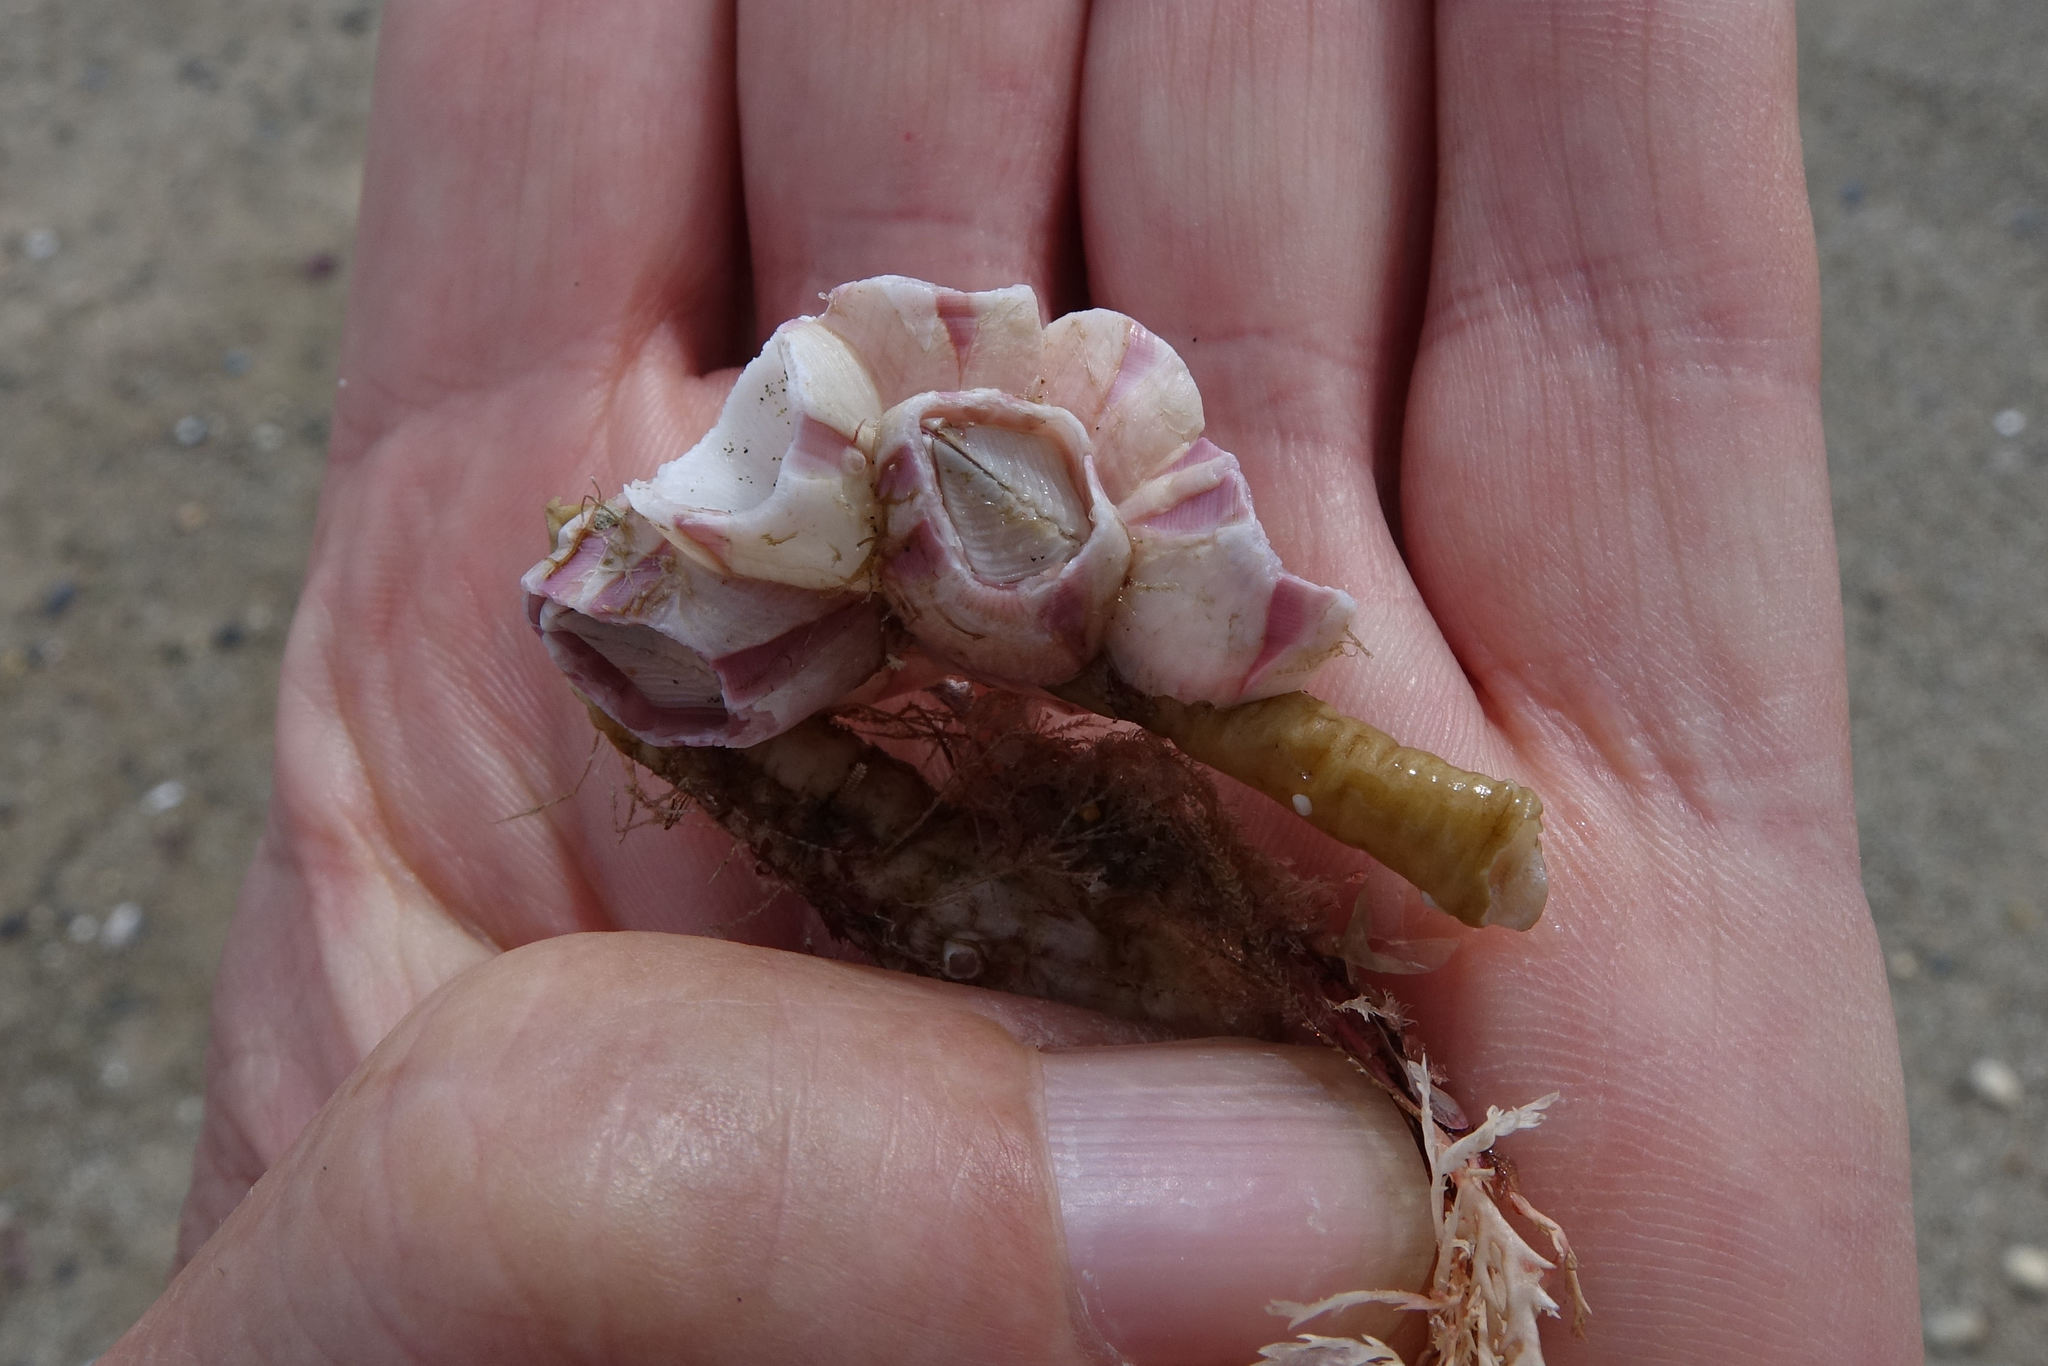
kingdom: Animalia
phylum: Arthropoda
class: Maxillopoda
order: Sessilia
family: Balanidae
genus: Notomegabalanus
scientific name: Notomegabalanus decorus
